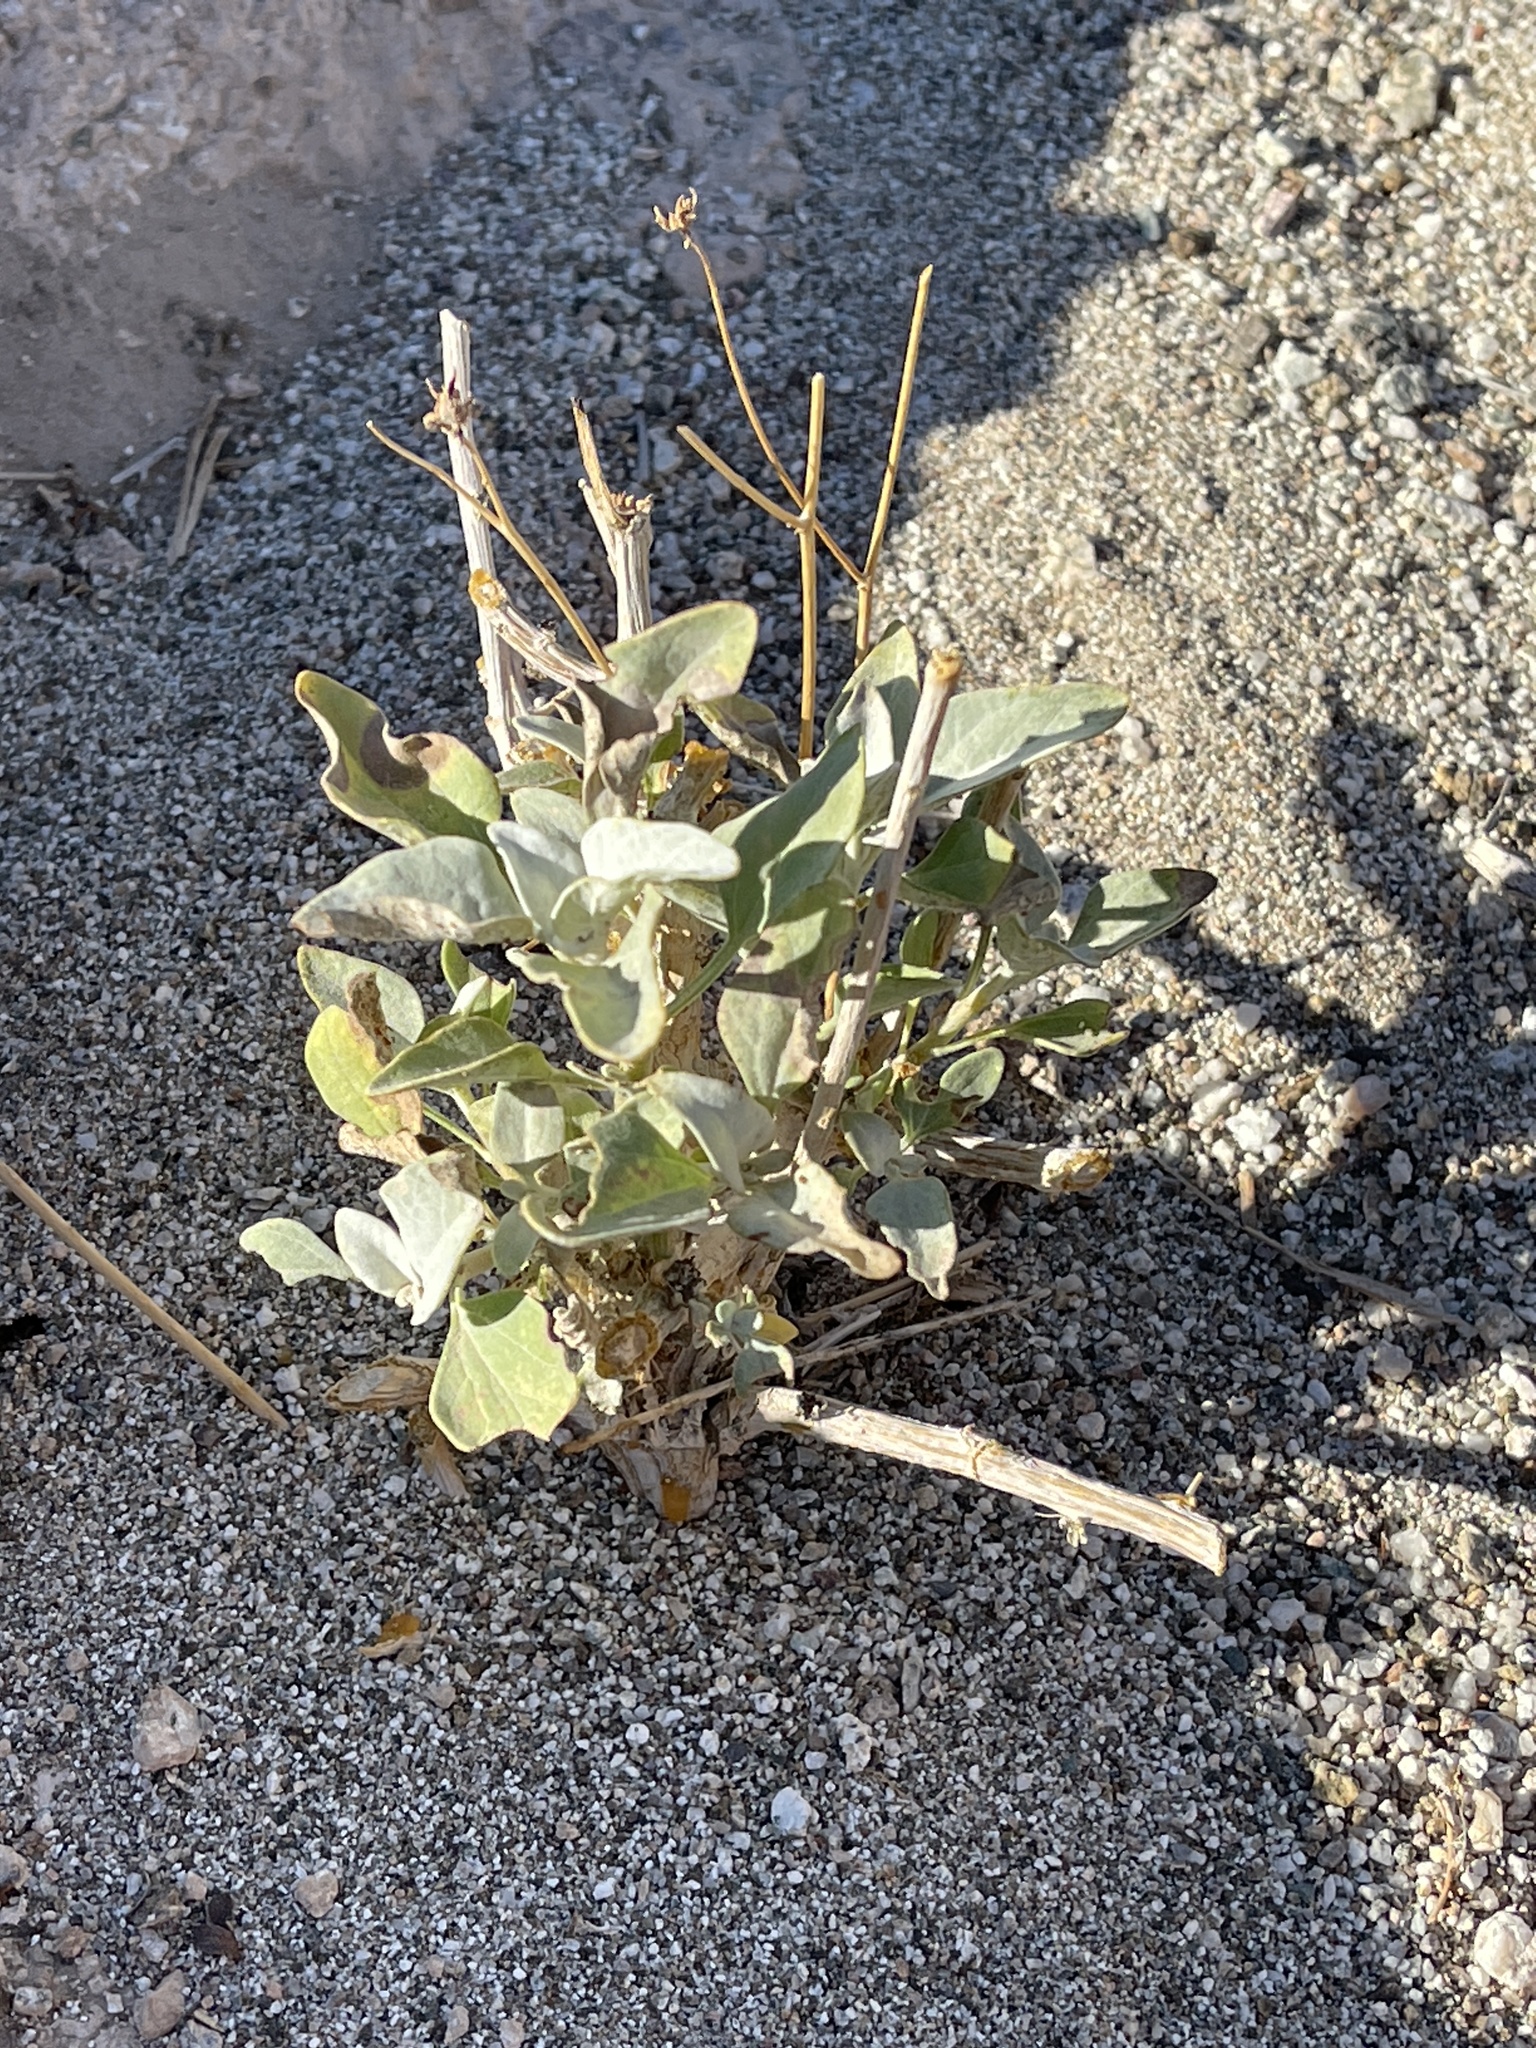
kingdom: Plantae
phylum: Tracheophyta
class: Magnoliopsida
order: Asterales
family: Asteraceae
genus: Encelia
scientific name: Encelia farinosa
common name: Brittlebush
